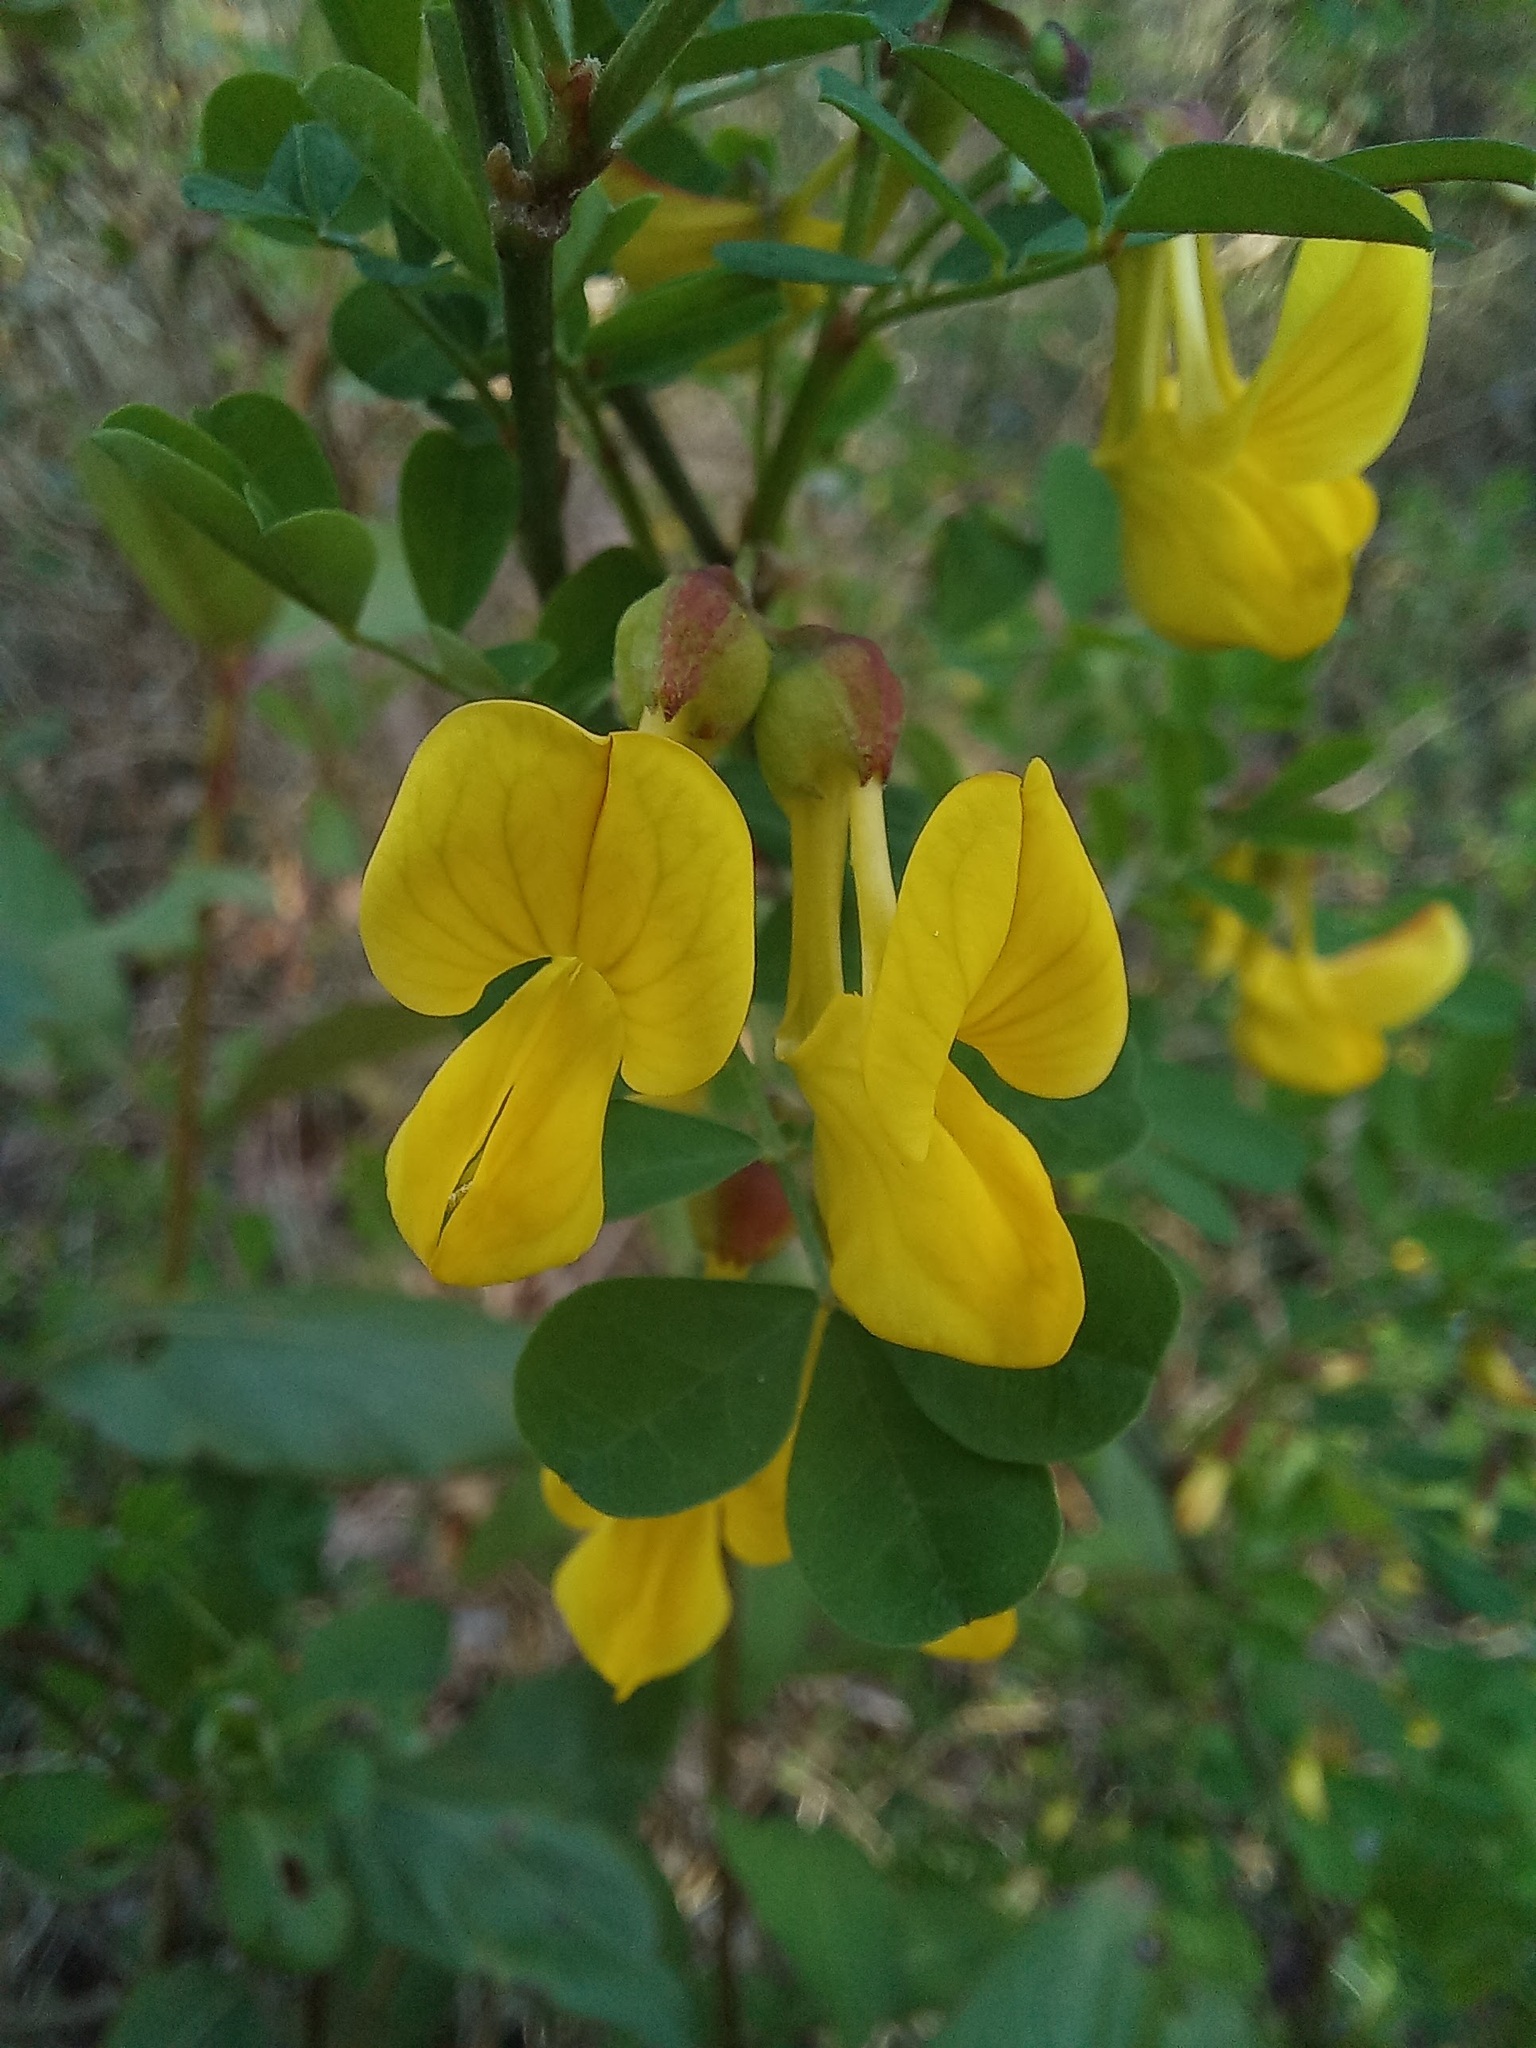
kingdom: Plantae
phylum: Tracheophyta
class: Magnoliopsida
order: Fabales
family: Fabaceae
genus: Hippocrepis
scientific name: Hippocrepis emerus
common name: Scorpion senna
